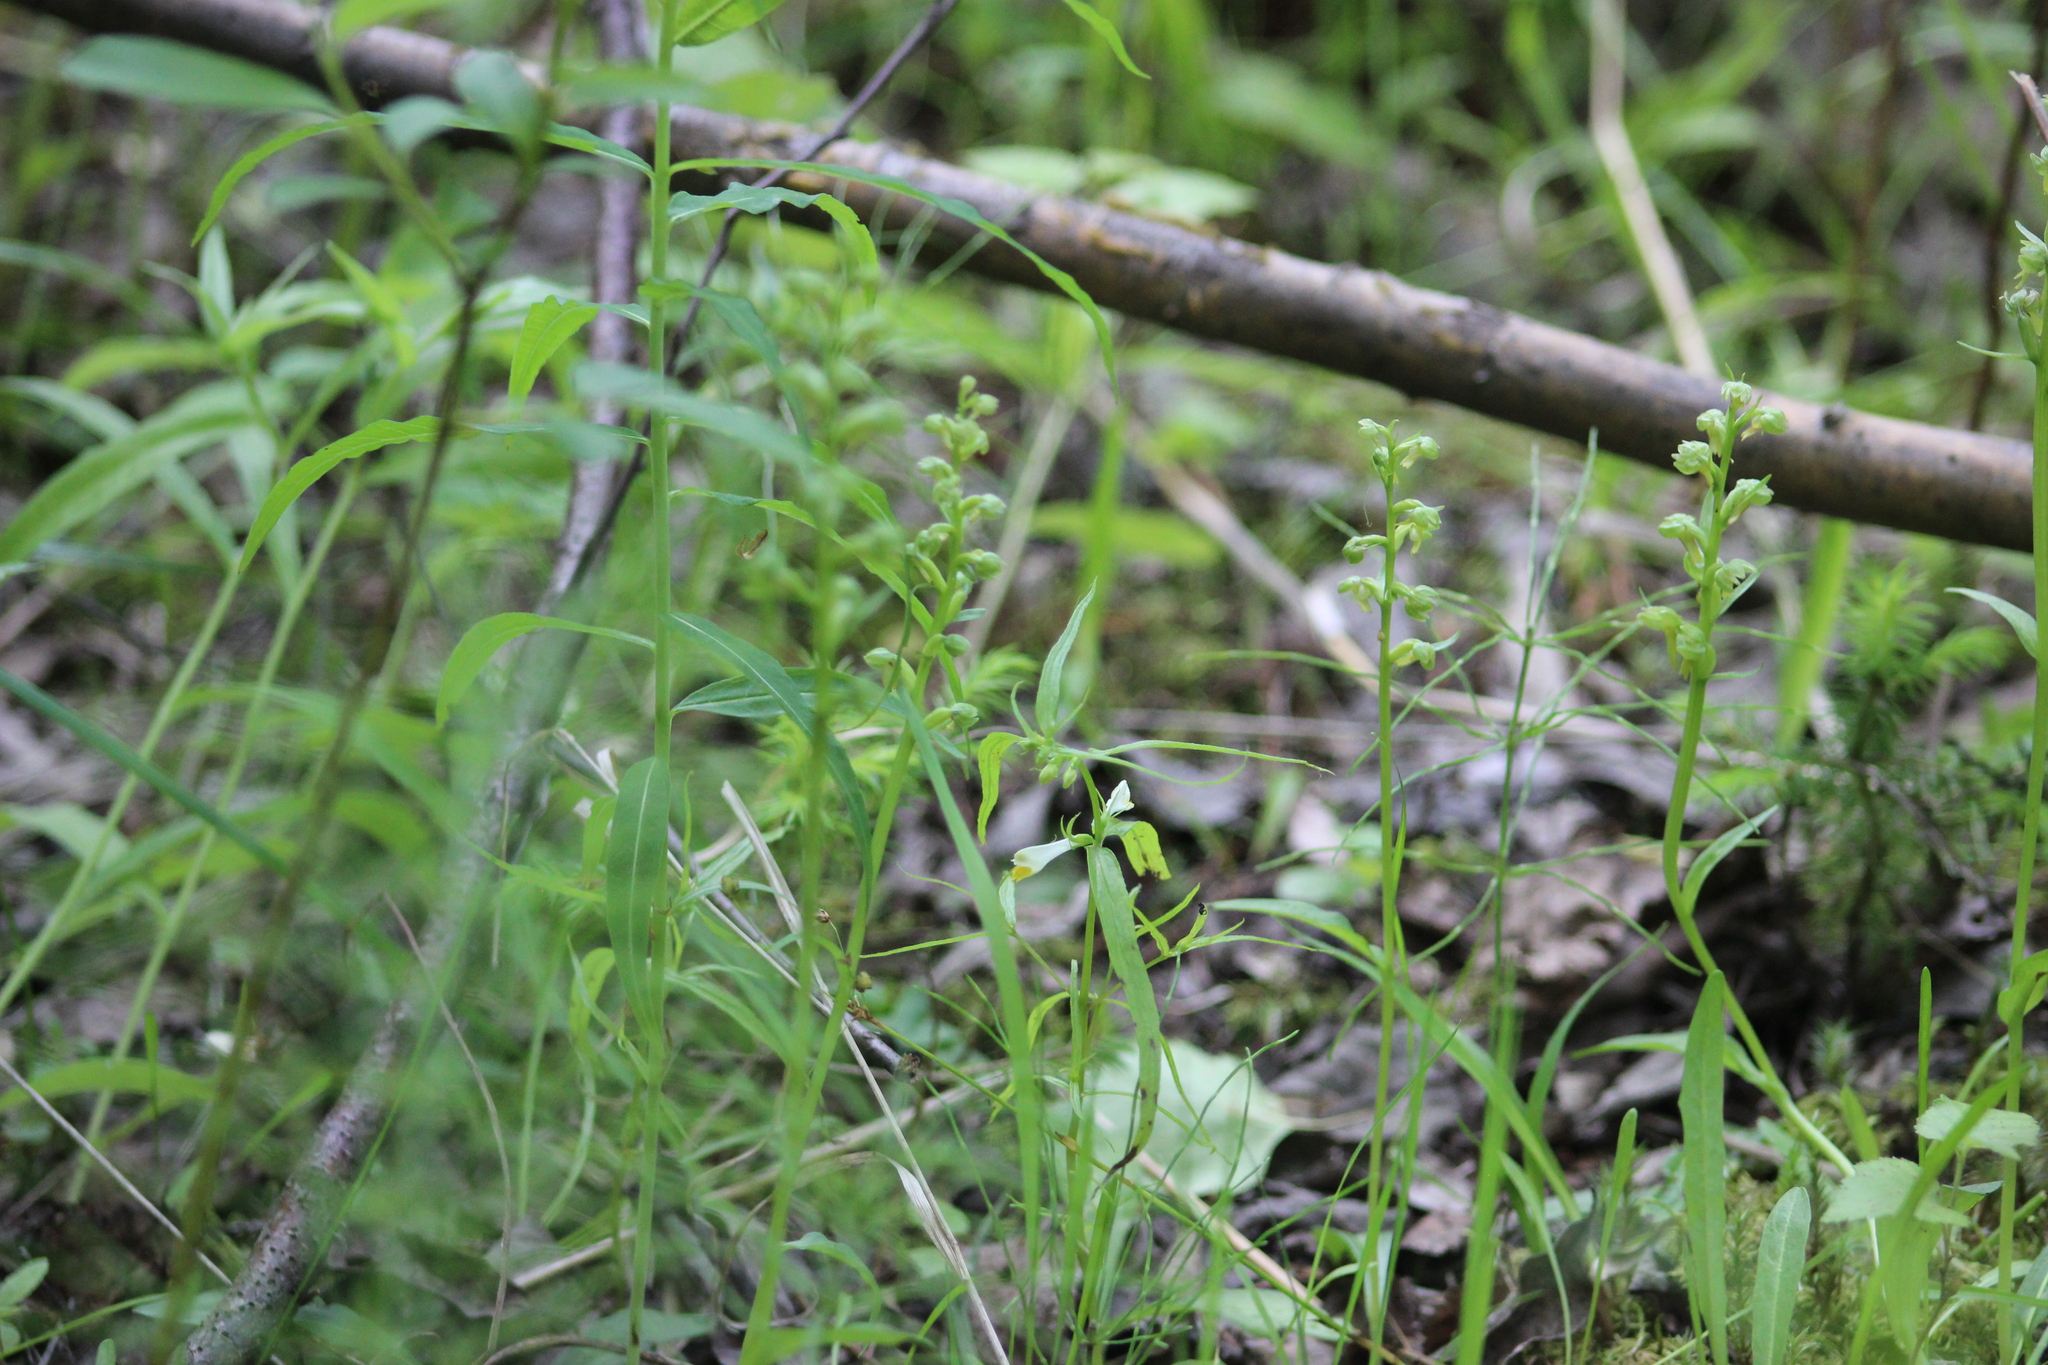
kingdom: Plantae
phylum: Tracheophyta
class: Liliopsida
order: Asparagales
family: Orchidaceae
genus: Dactylorhiza
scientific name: Dactylorhiza viridis
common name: Longbract frog orchid
